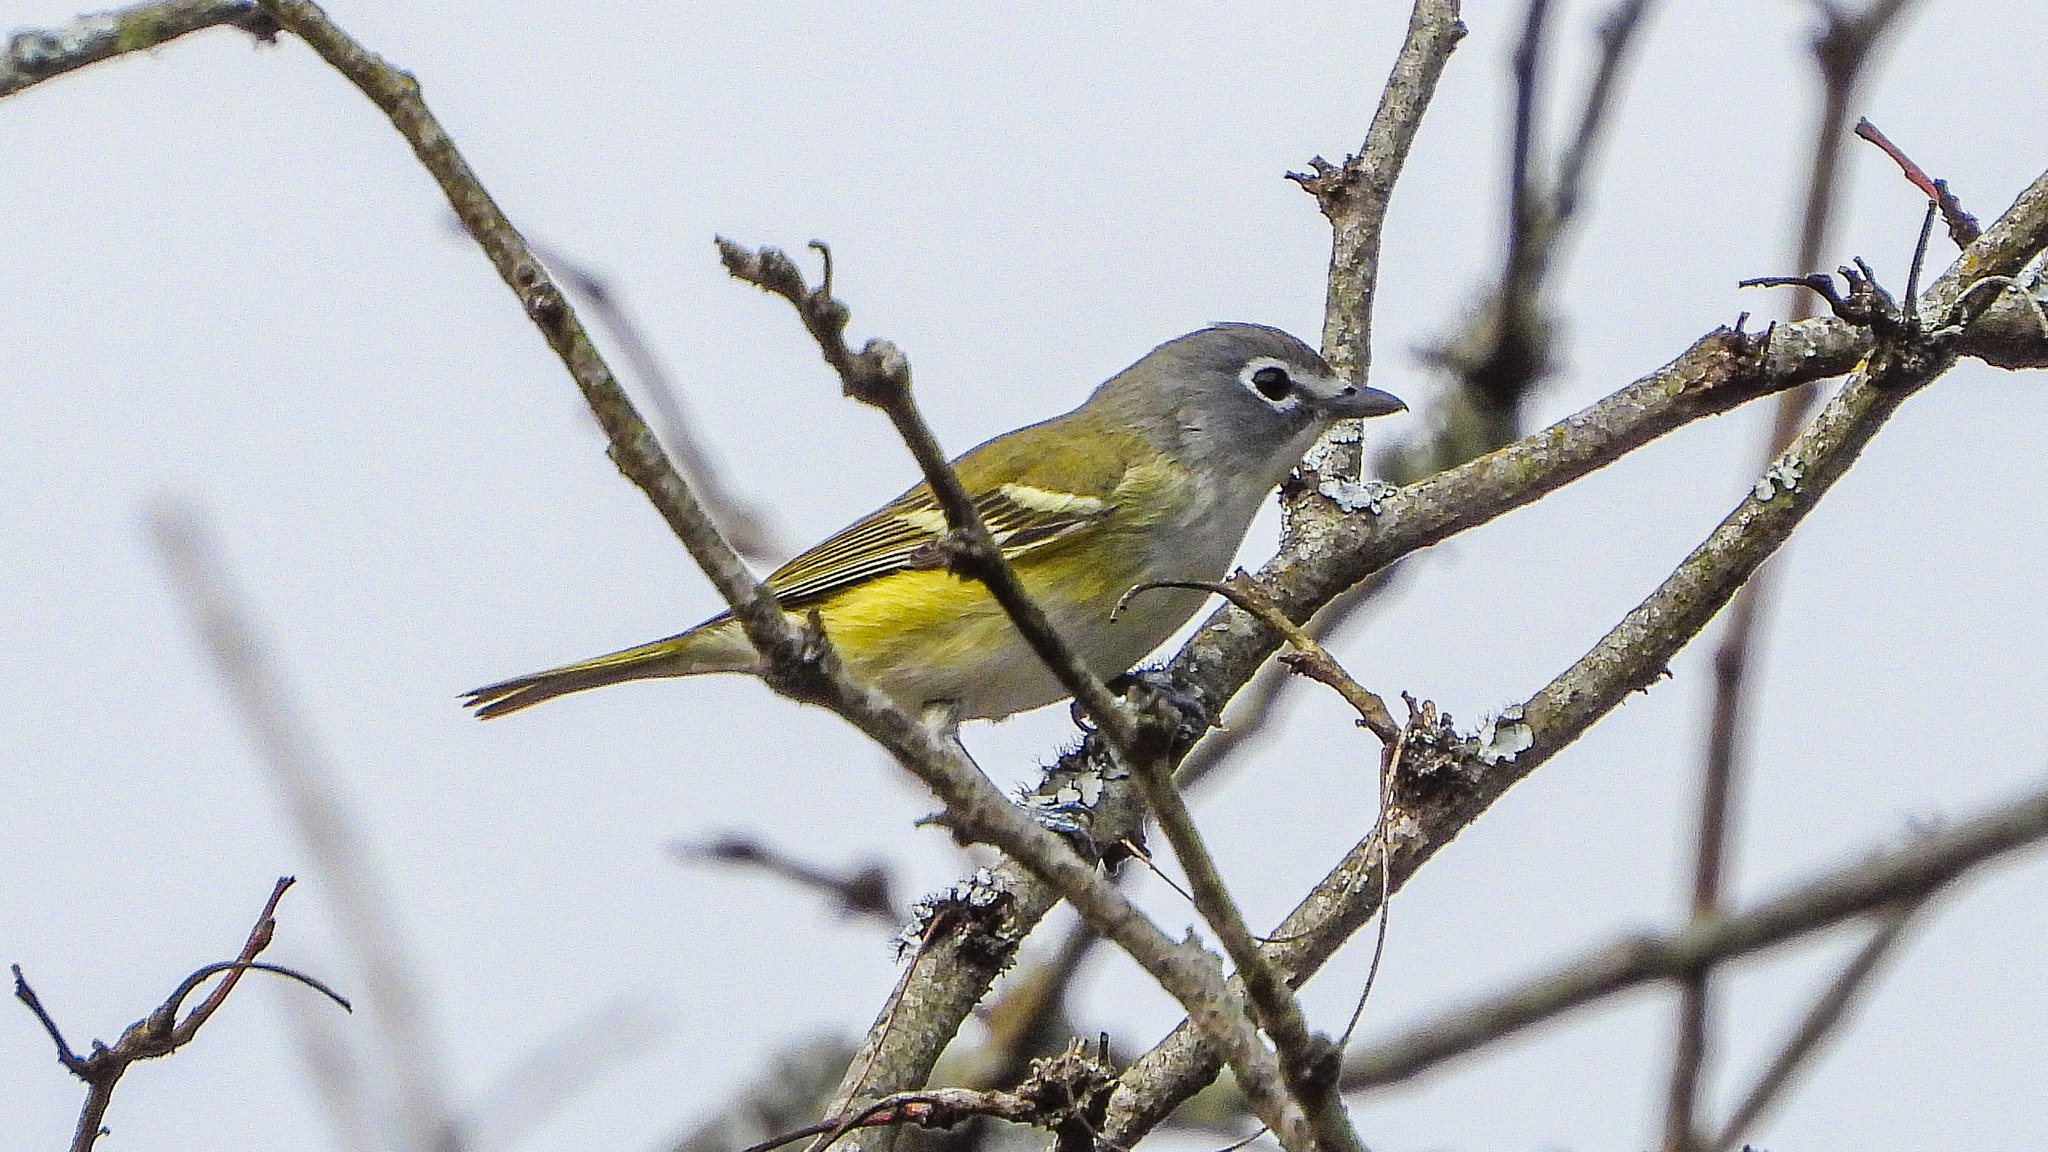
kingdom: Animalia
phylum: Chordata
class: Aves
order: Passeriformes
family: Vireonidae
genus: Vireo
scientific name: Vireo solitarius
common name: Blue-headed vireo
